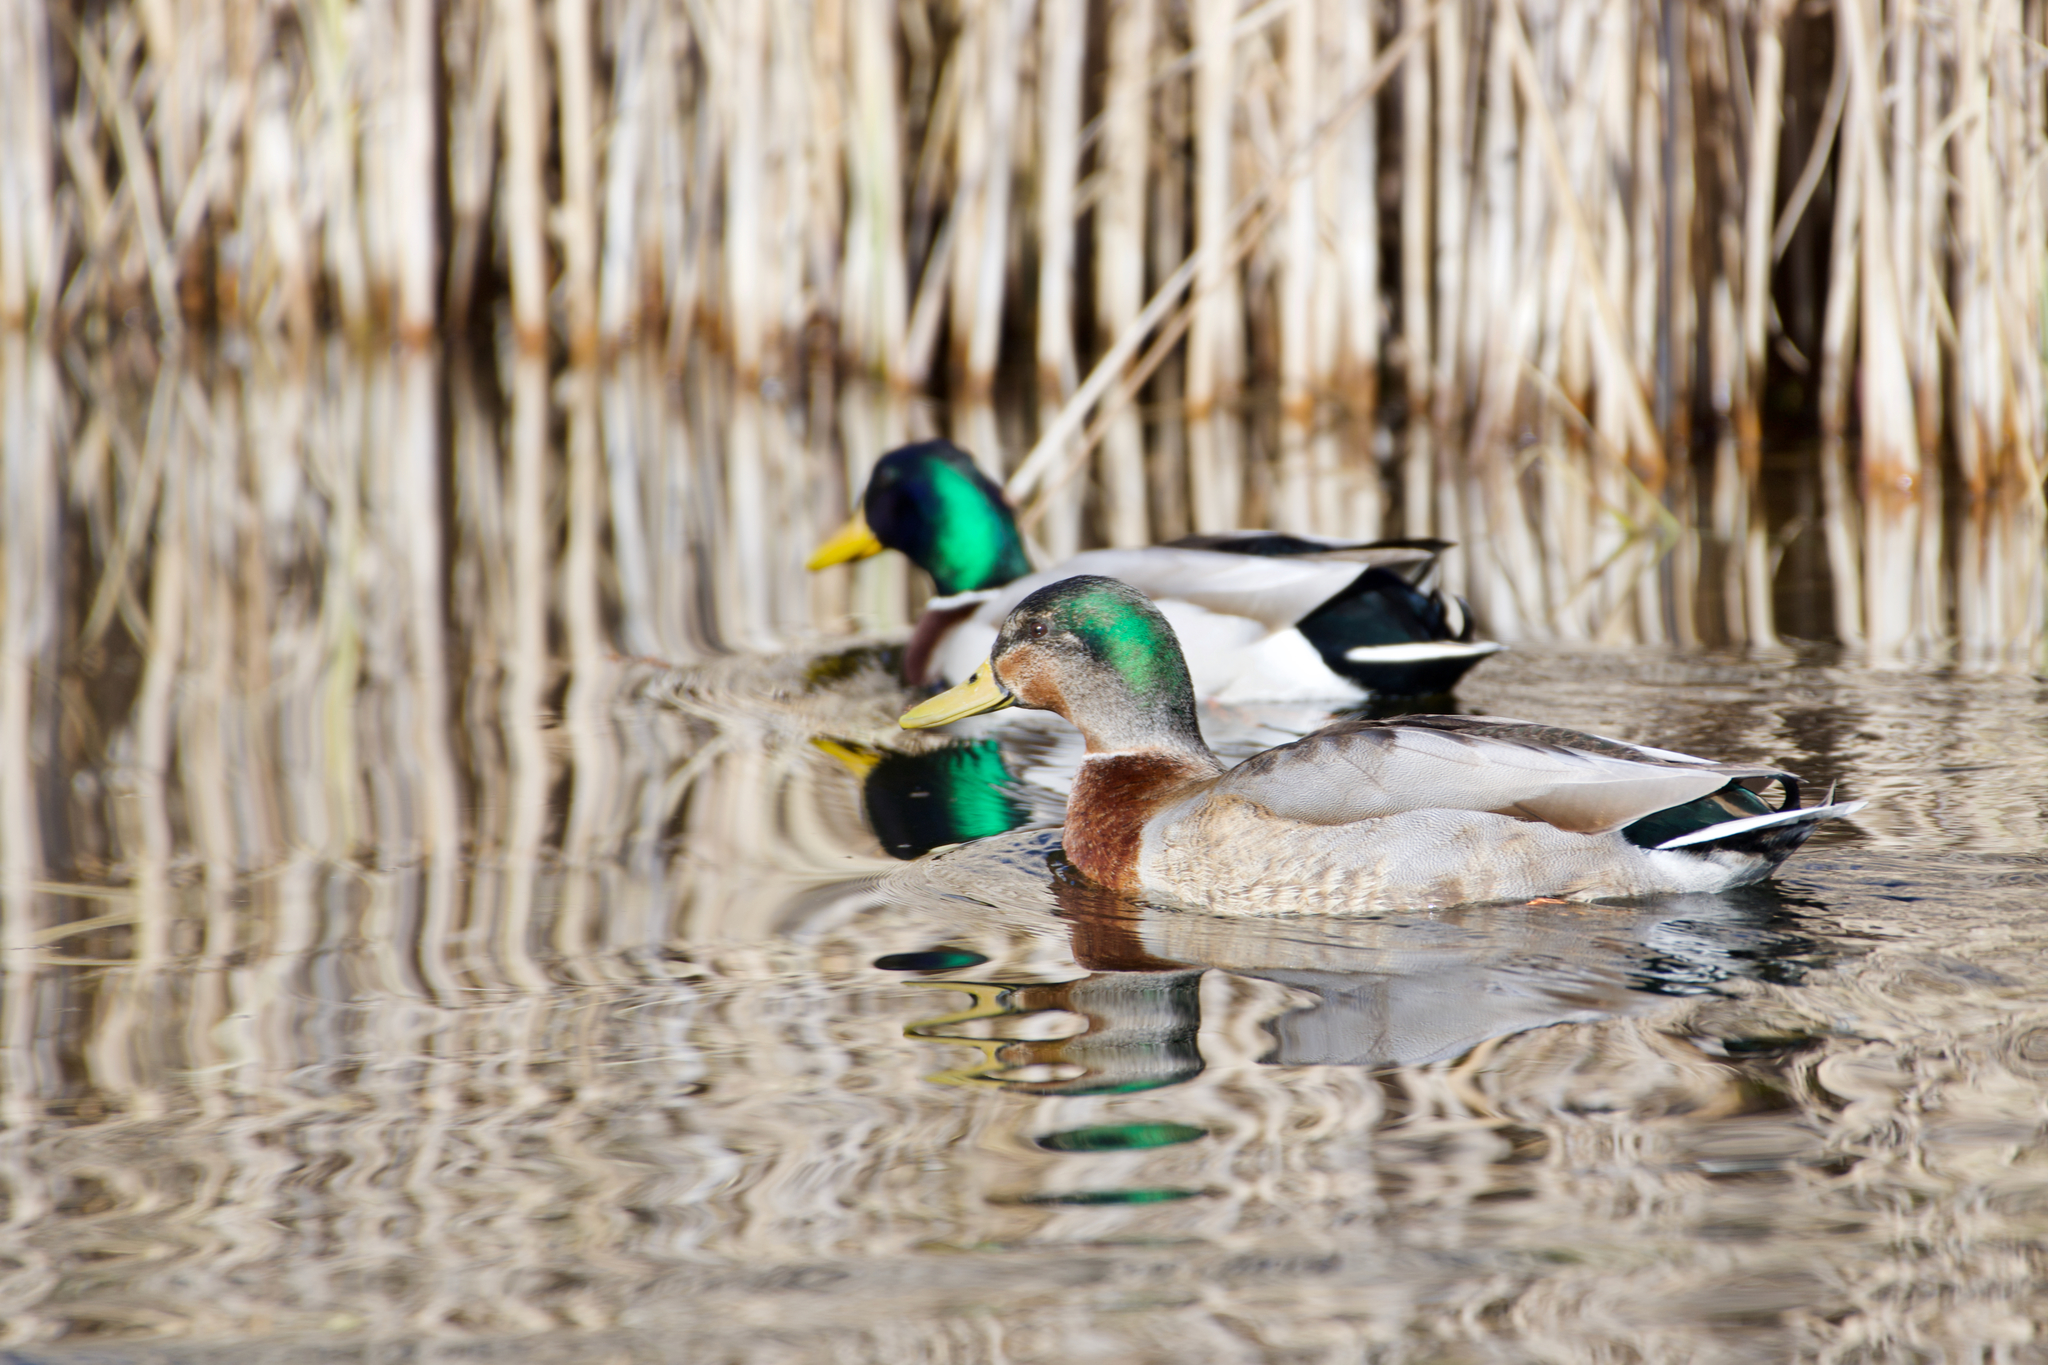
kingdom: Animalia
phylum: Chordata
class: Aves
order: Anseriformes
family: Anatidae
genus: Anas
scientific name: Anas platyrhynchos
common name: Mallard
